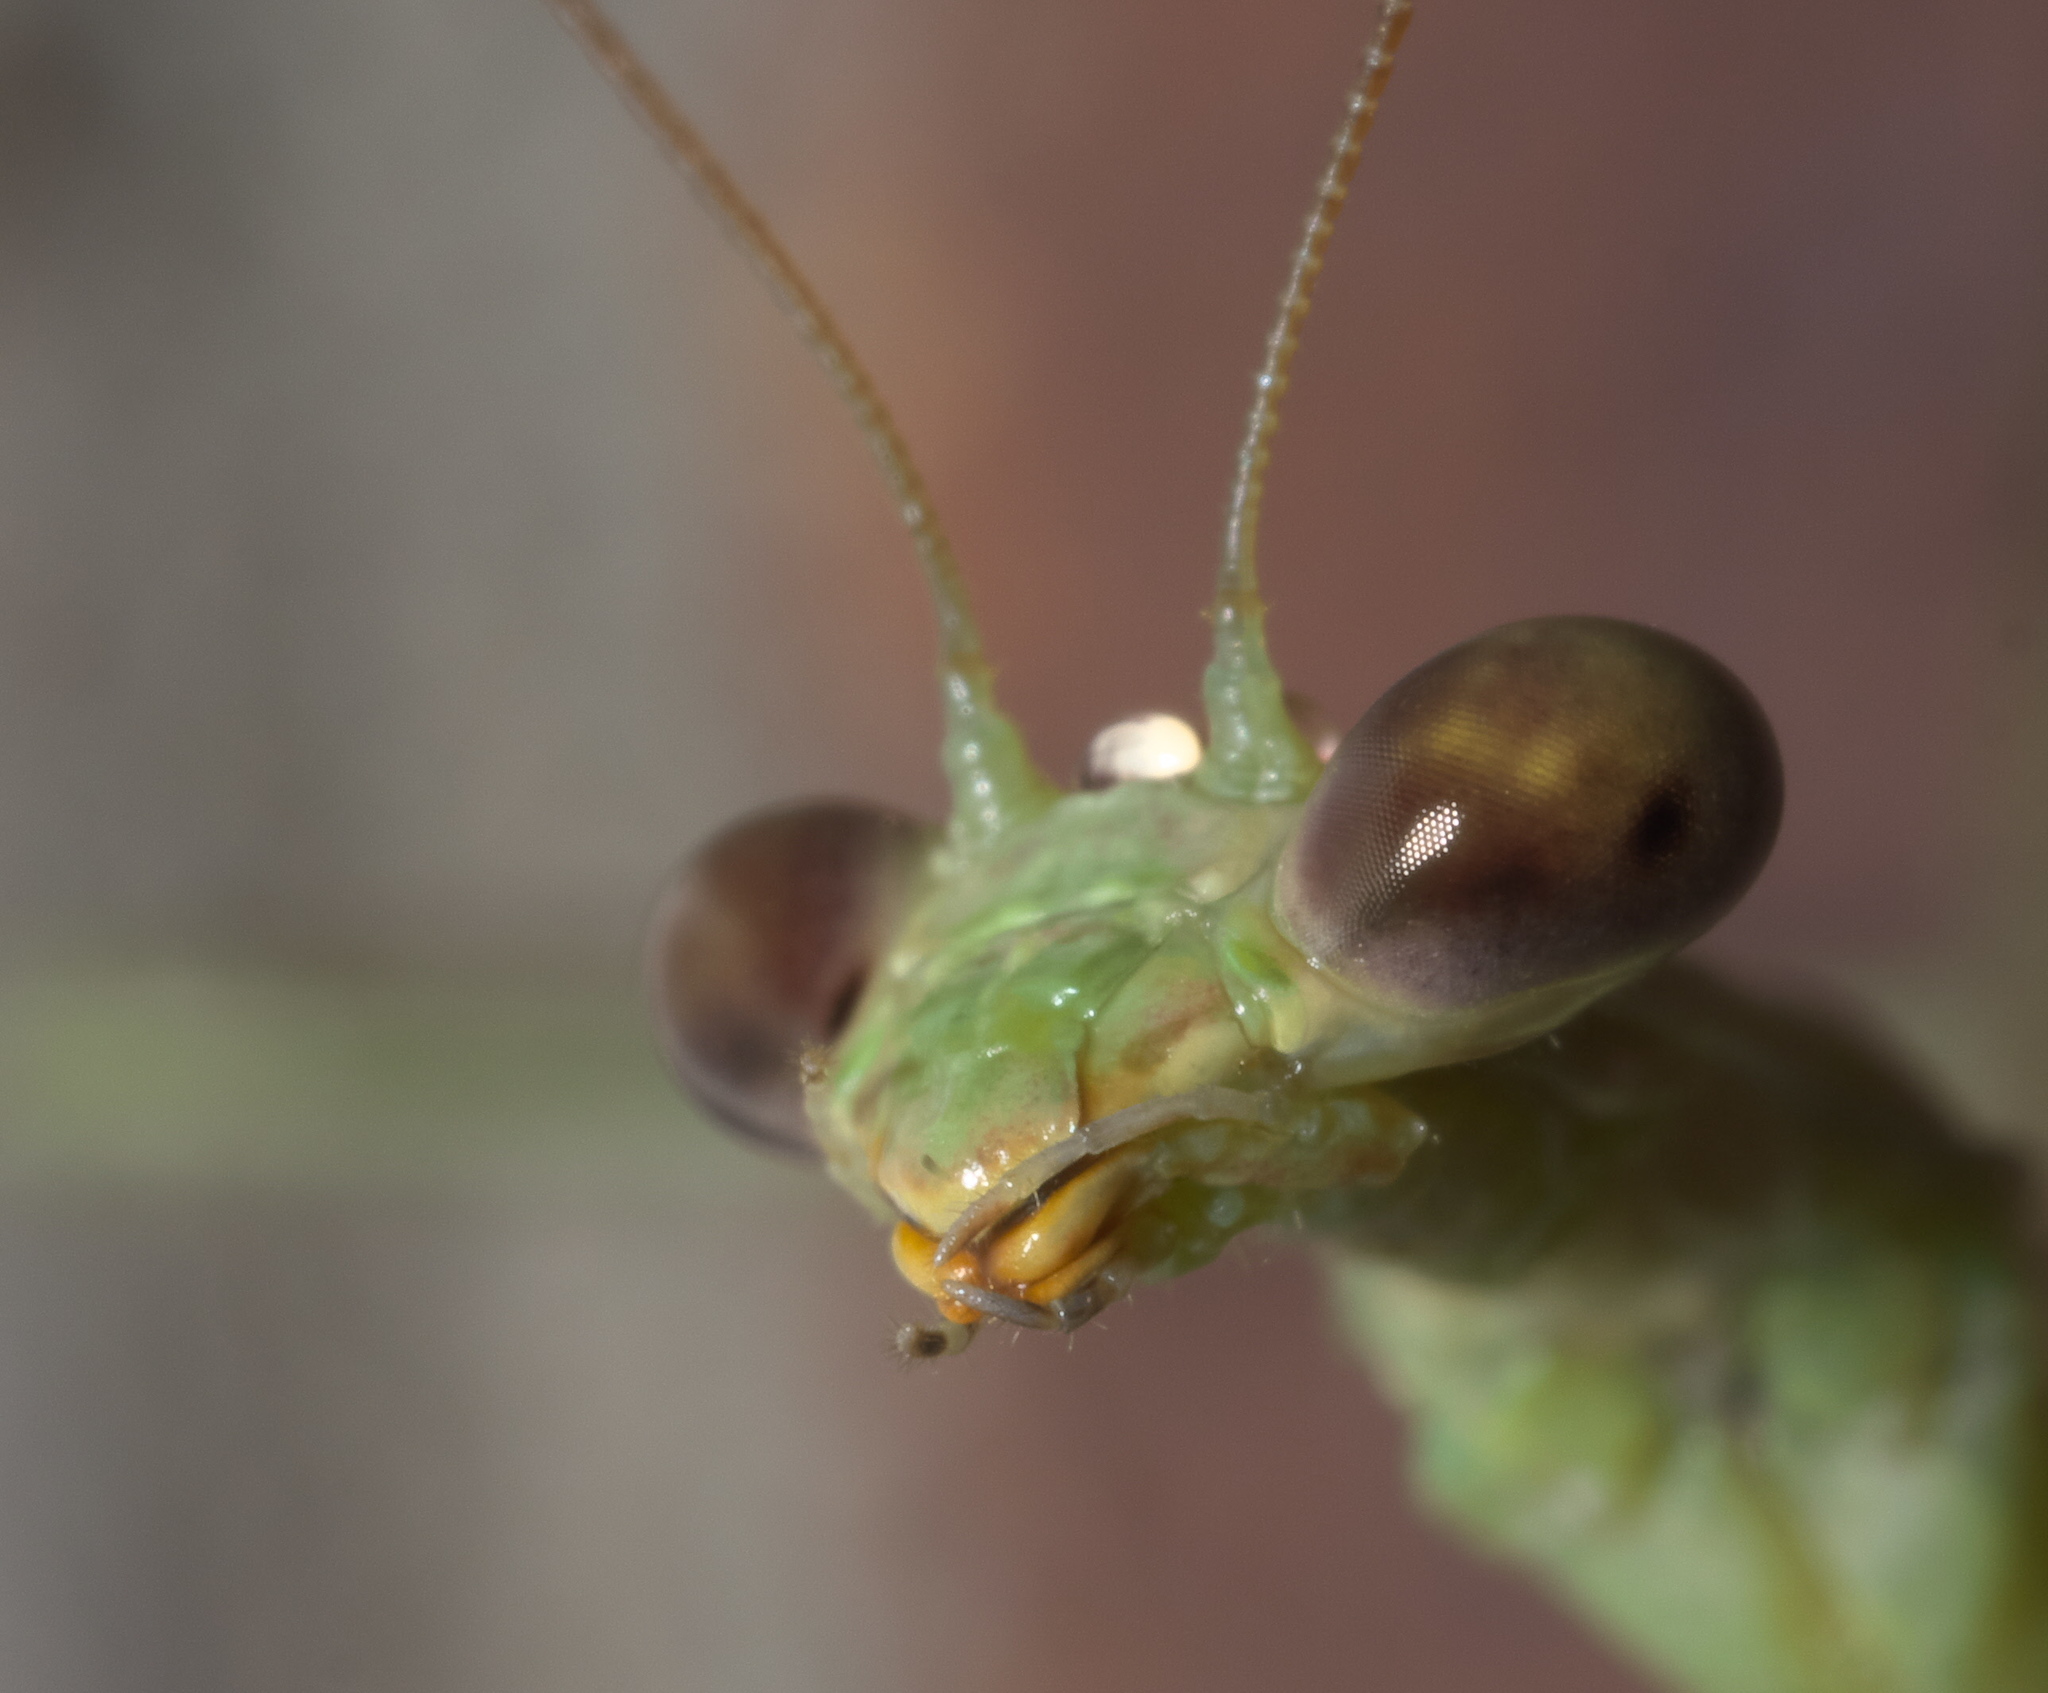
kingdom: Animalia
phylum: Arthropoda
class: Insecta
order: Mantodea
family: Mantidae
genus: Stagmomantis
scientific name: Stagmomantis carolina
